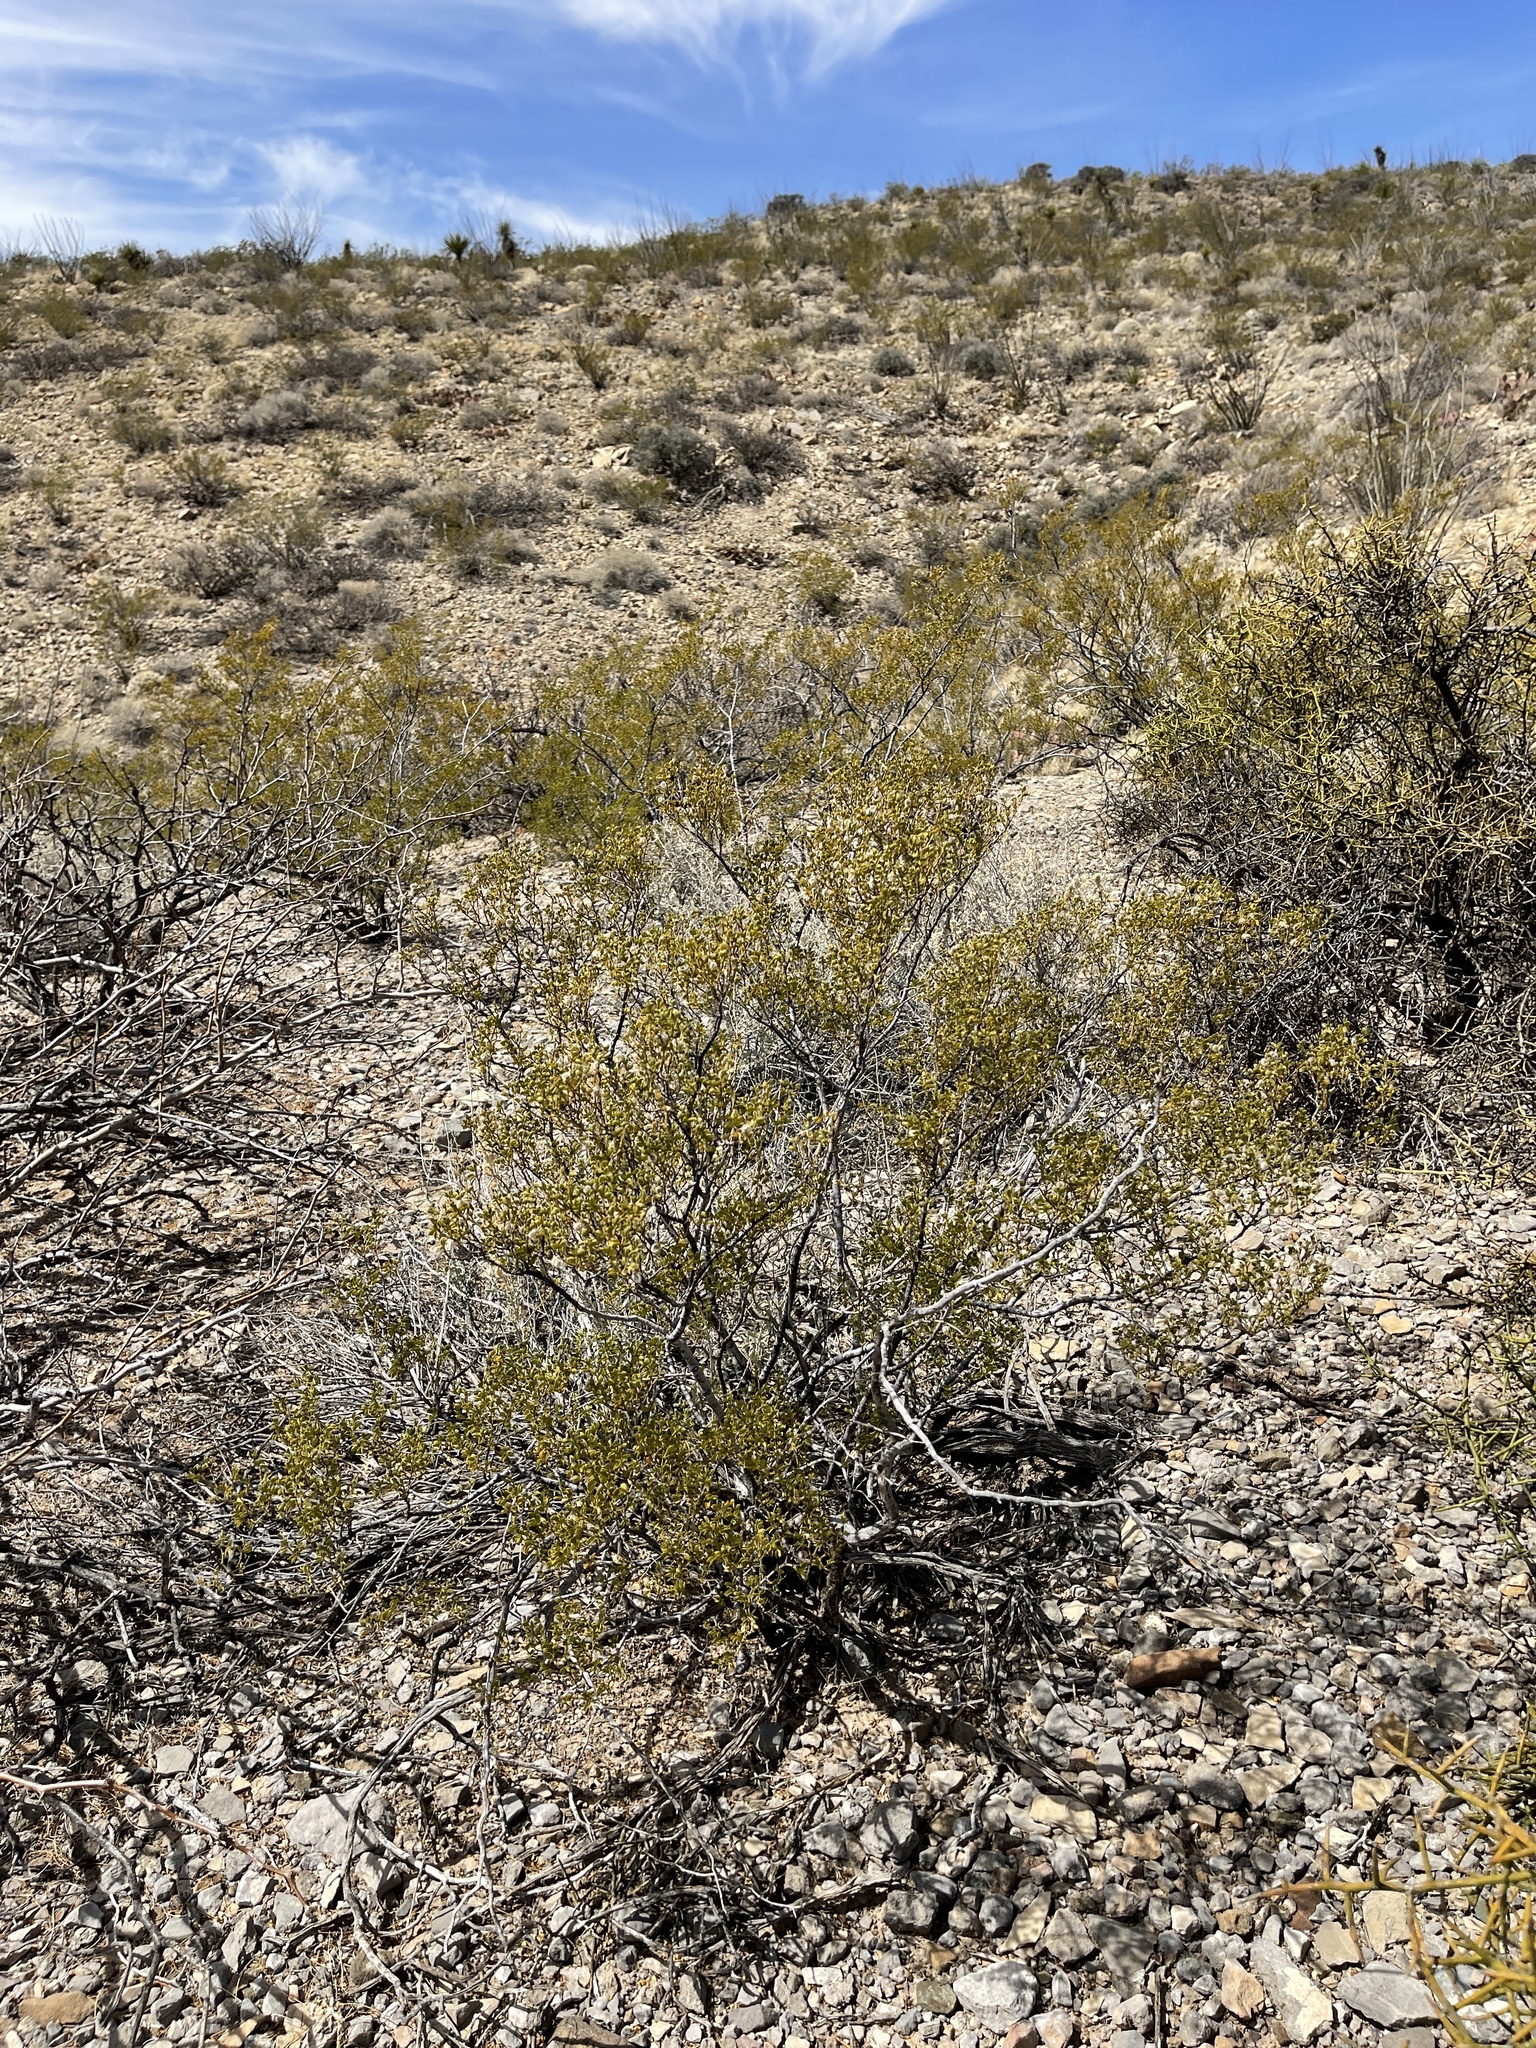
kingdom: Plantae
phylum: Tracheophyta
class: Magnoliopsida
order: Zygophyllales
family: Zygophyllaceae
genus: Larrea
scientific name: Larrea tridentata
